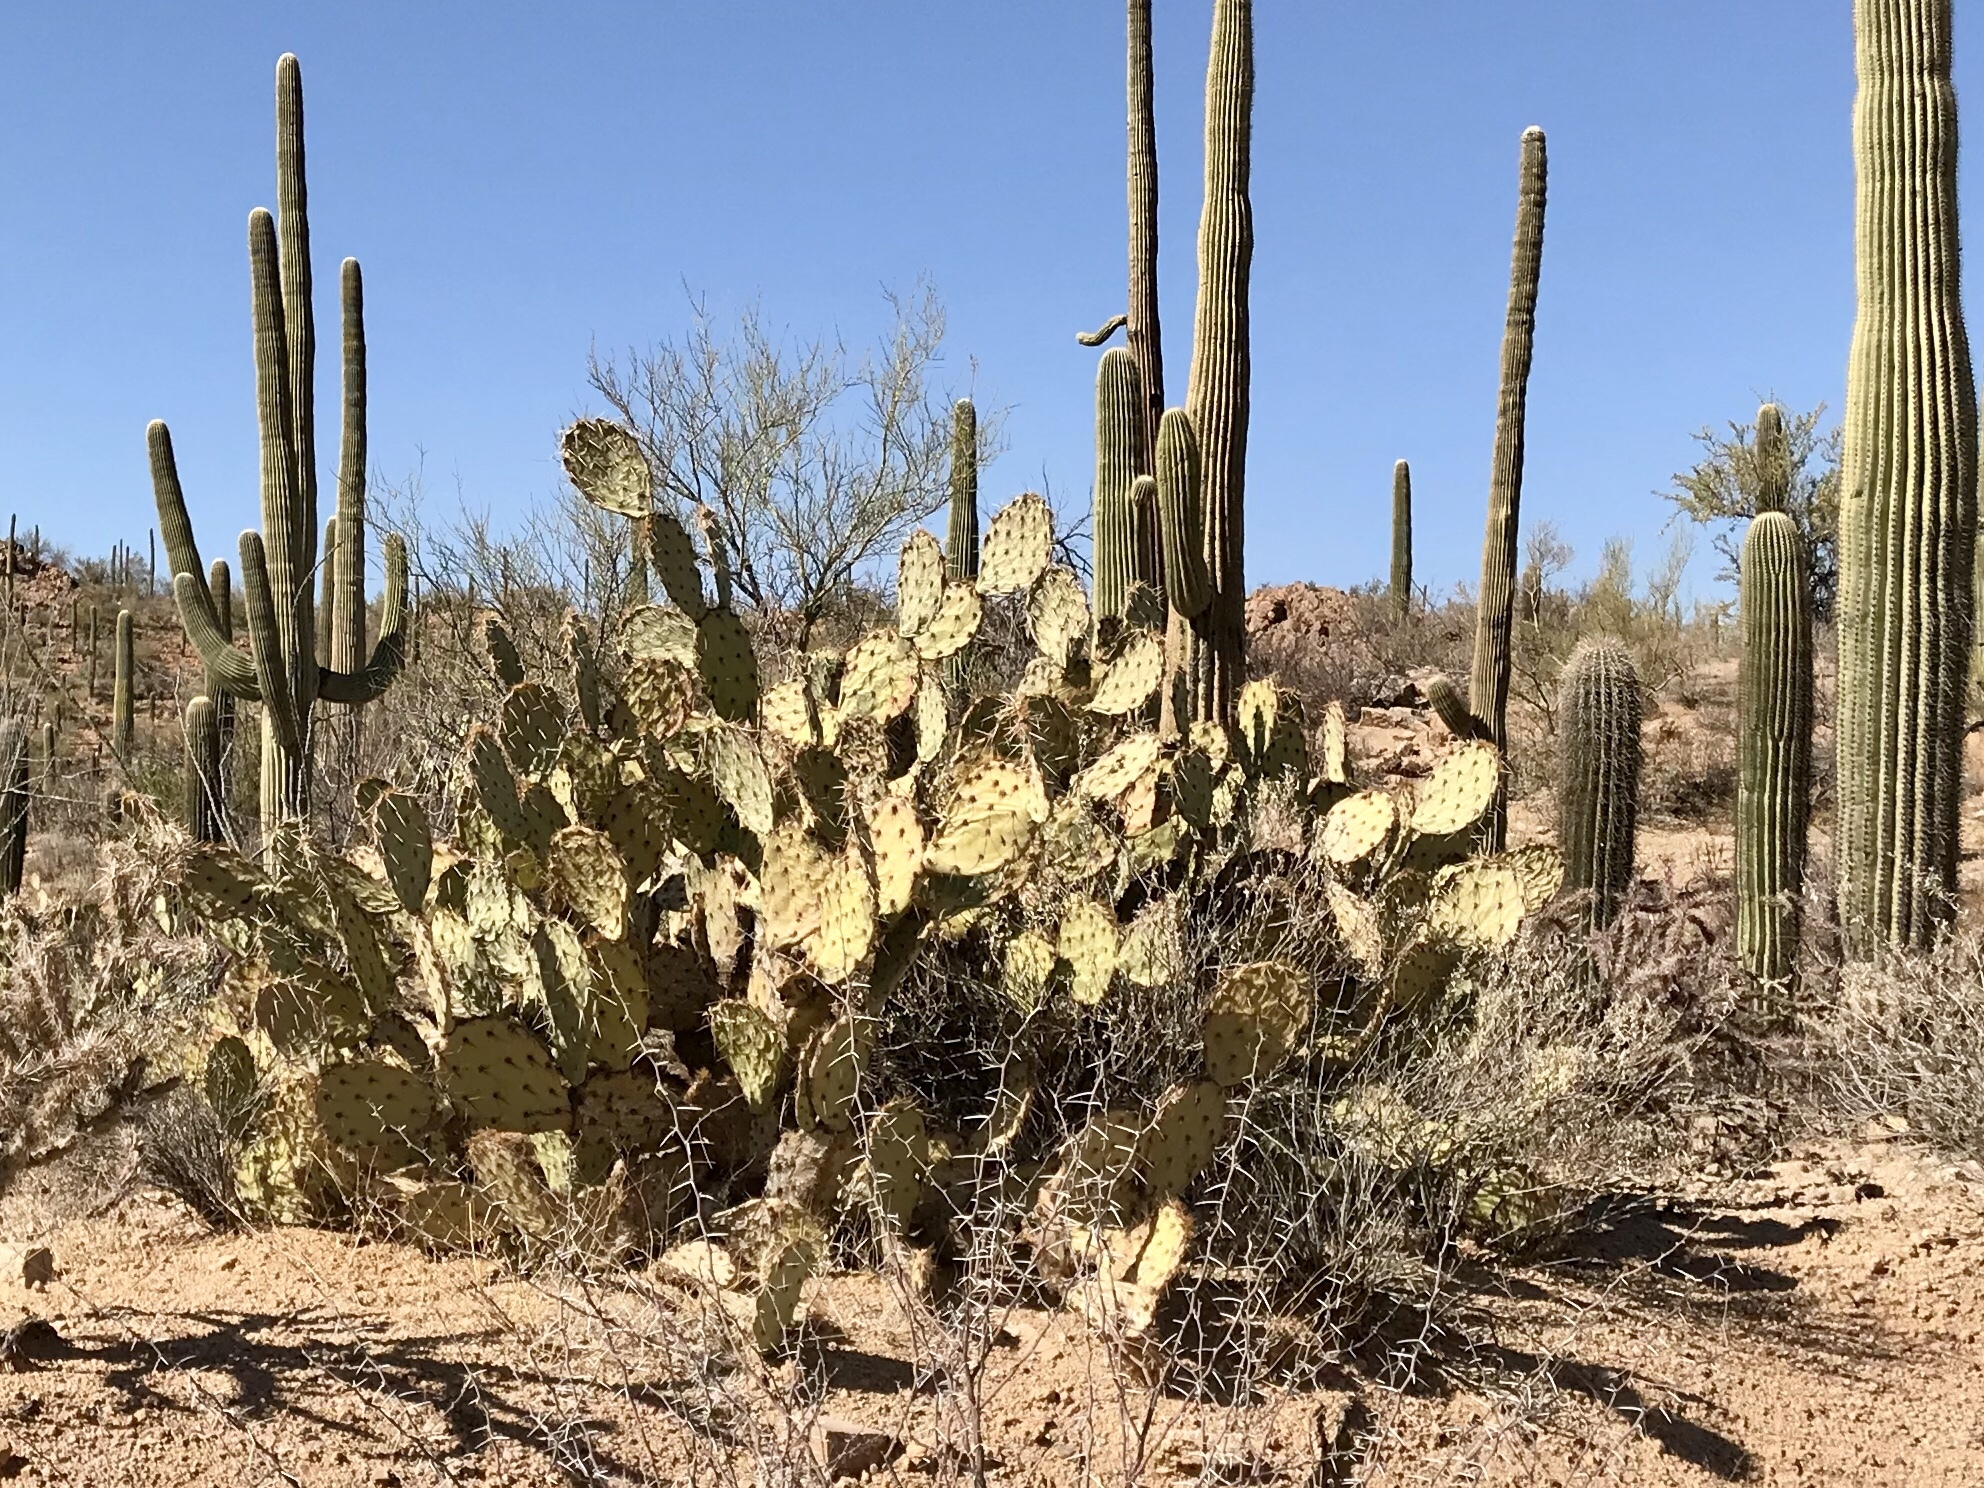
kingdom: Plantae
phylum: Tracheophyta
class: Magnoliopsida
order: Caryophyllales
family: Cactaceae
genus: Opuntia
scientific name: Opuntia engelmannii
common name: Cactus-apple
